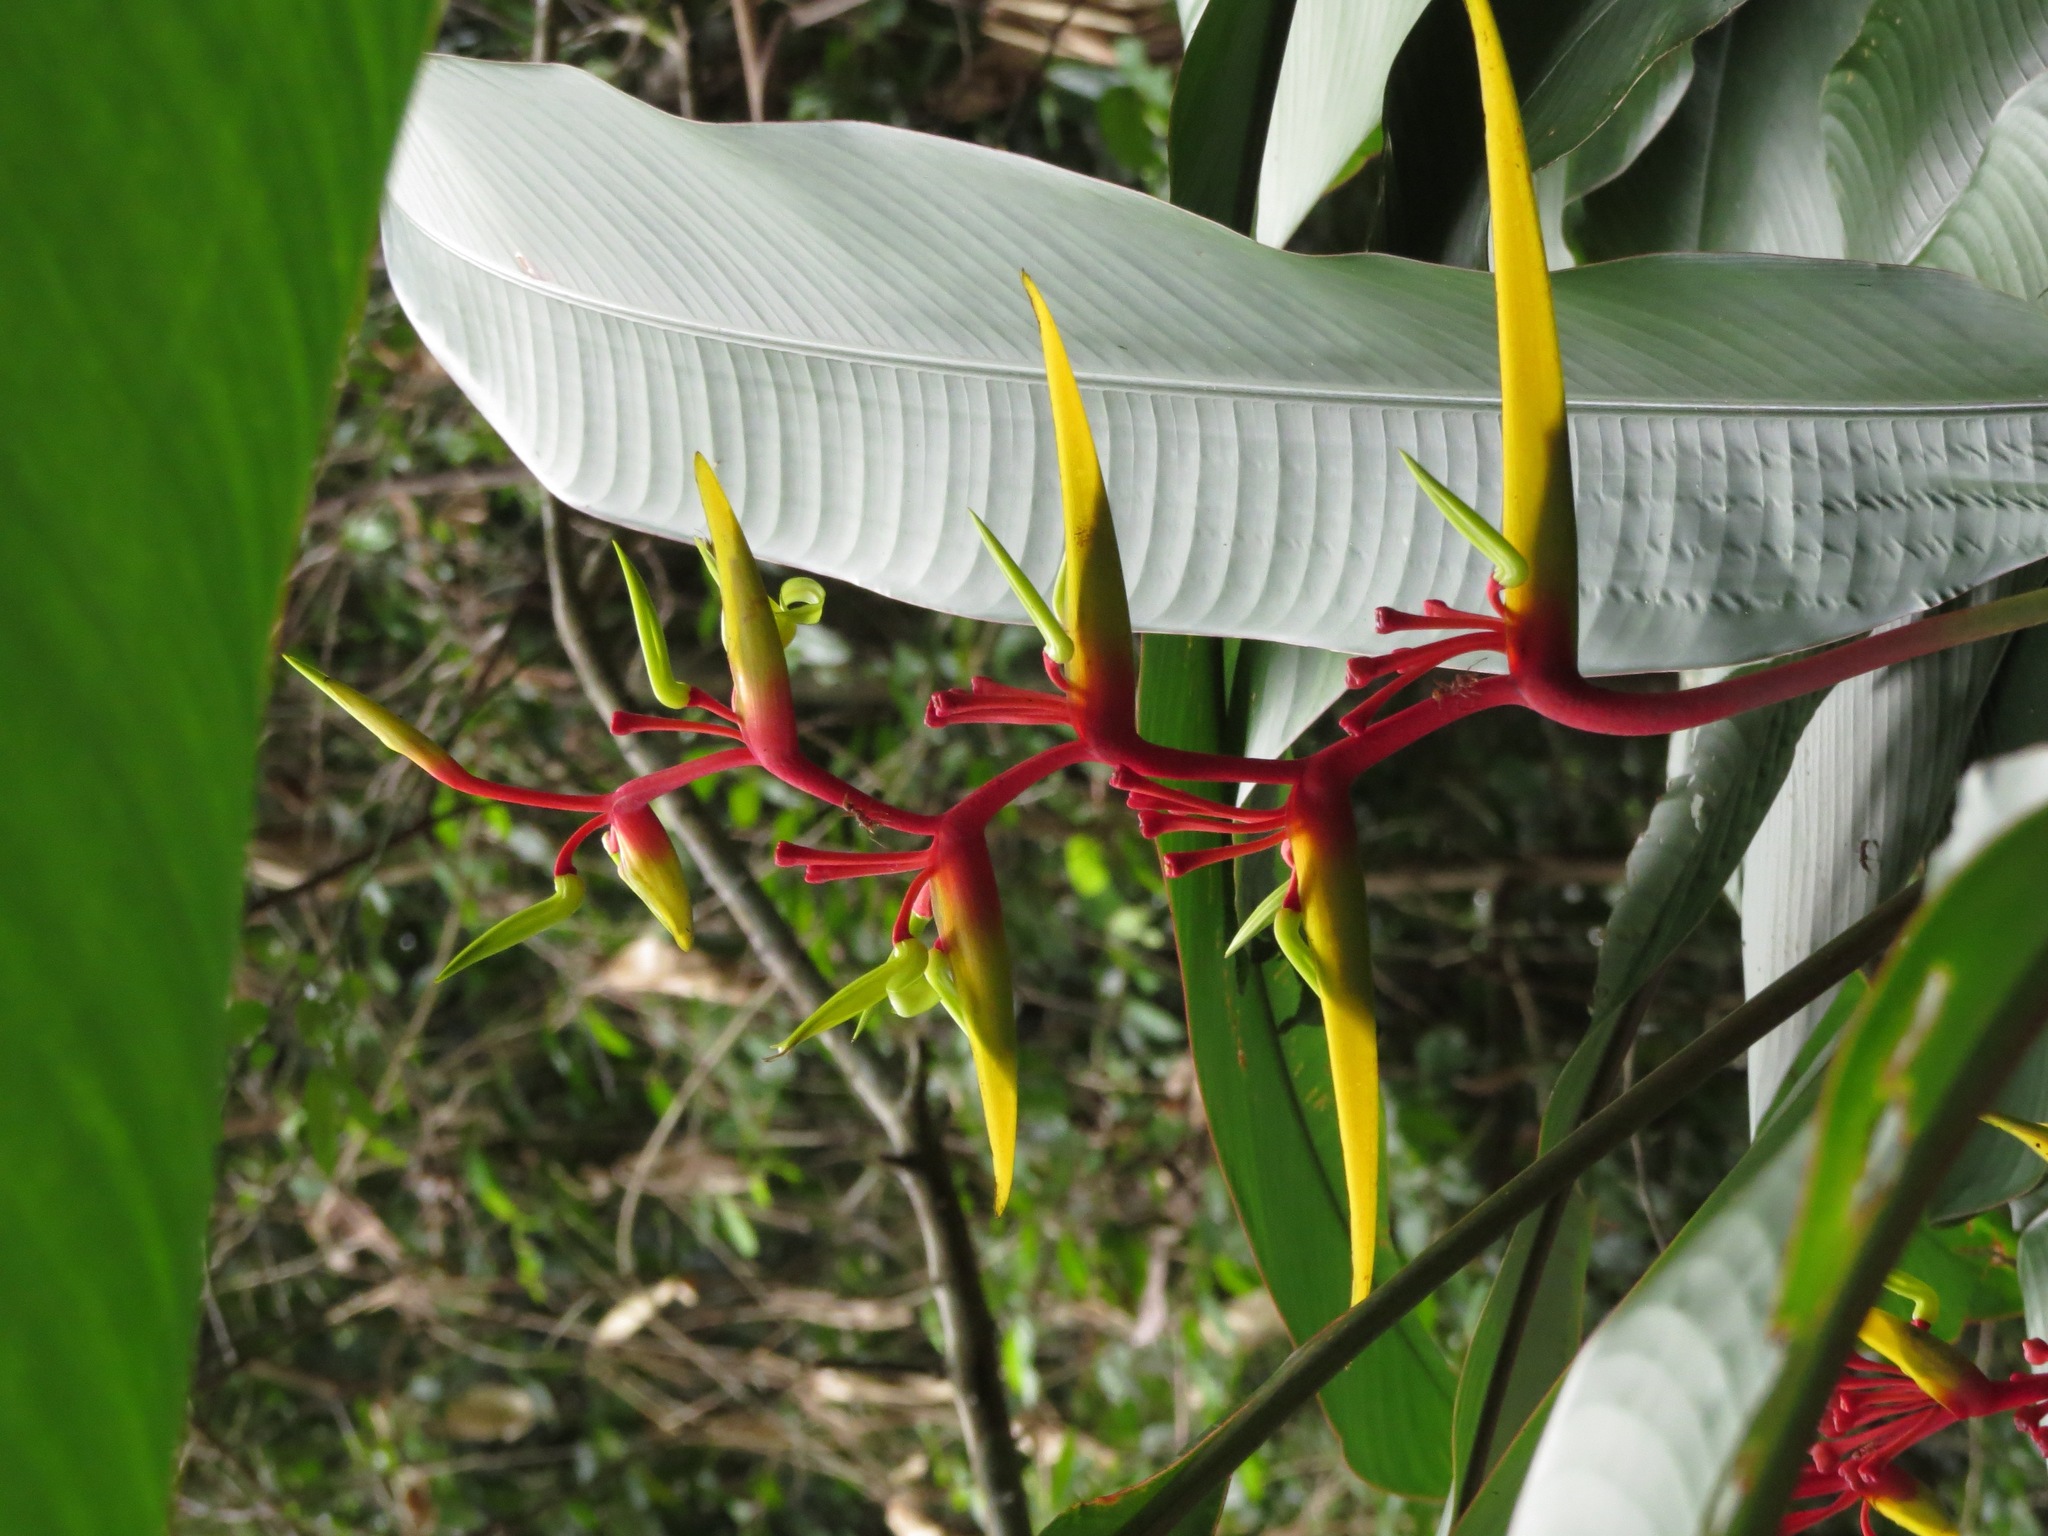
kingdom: Plantae
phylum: Tracheophyta
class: Liliopsida
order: Zingiberales
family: Heliconiaceae
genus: Heliconia
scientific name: Heliconia richardiana
